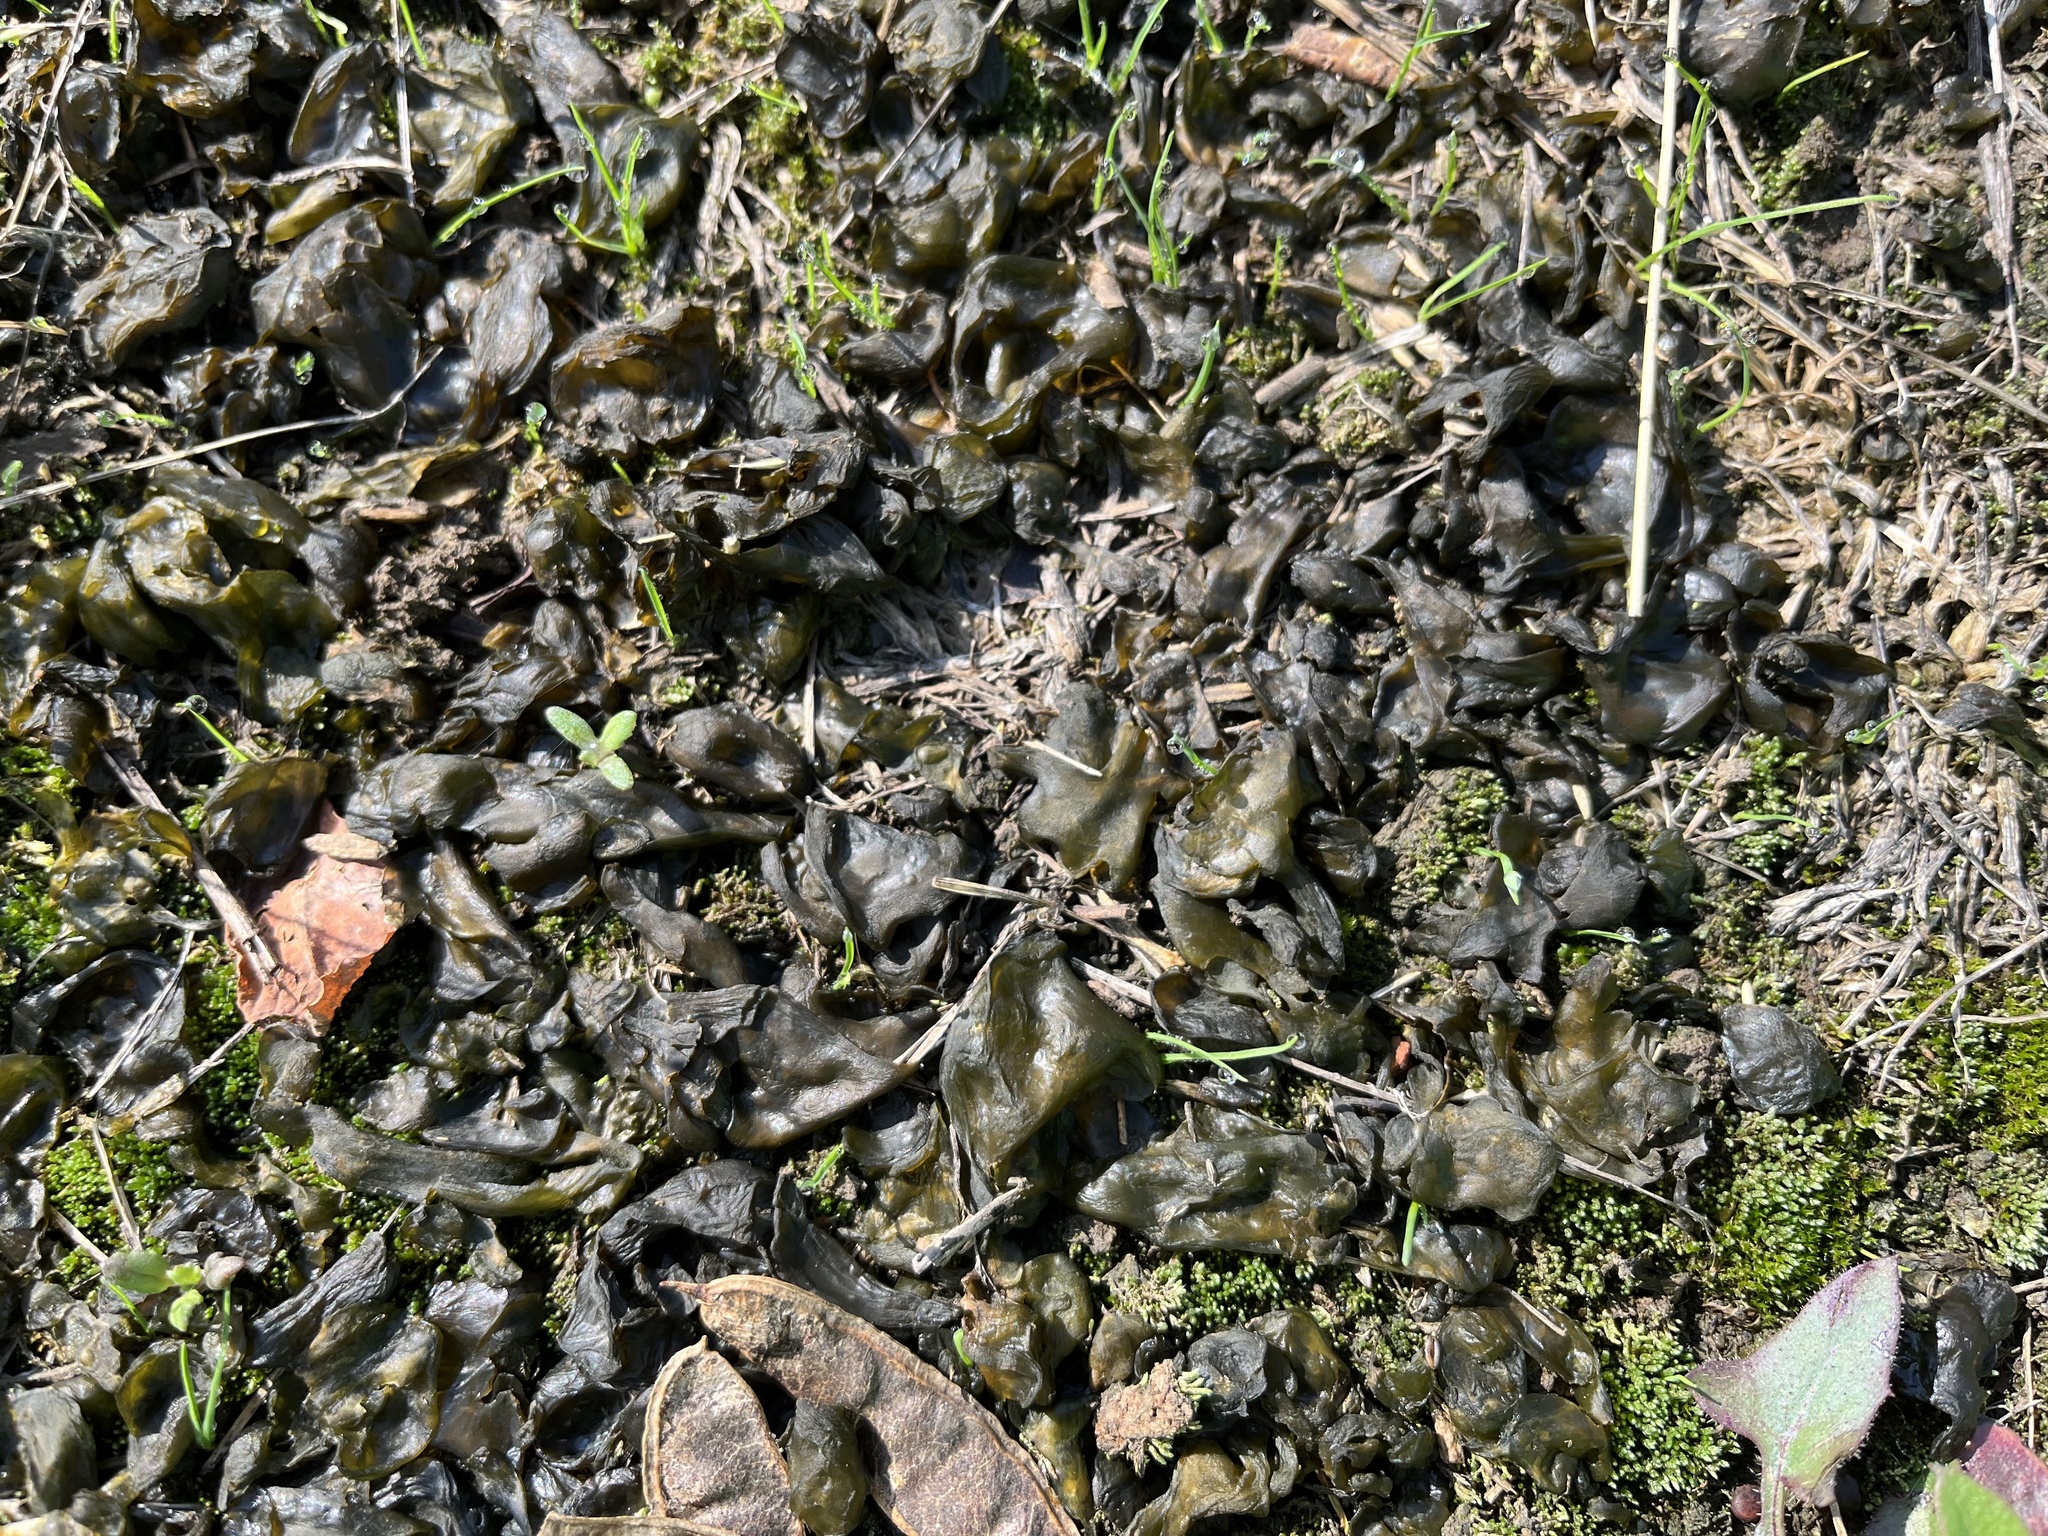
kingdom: Bacteria
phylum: Cyanobacteria
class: Cyanobacteriia
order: Cyanobacteriales
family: Nostocaceae
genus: Nostoc
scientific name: Nostoc commune
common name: Star jelly
